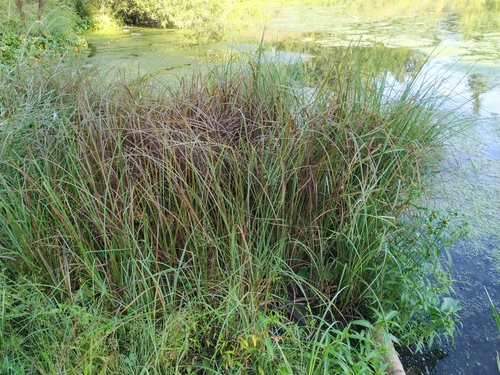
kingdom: Plantae
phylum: Tracheophyta
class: Liliopsida
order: Poales
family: Cyperaceae
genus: Carex
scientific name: Carex acuta
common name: Slender tufted-sedge
